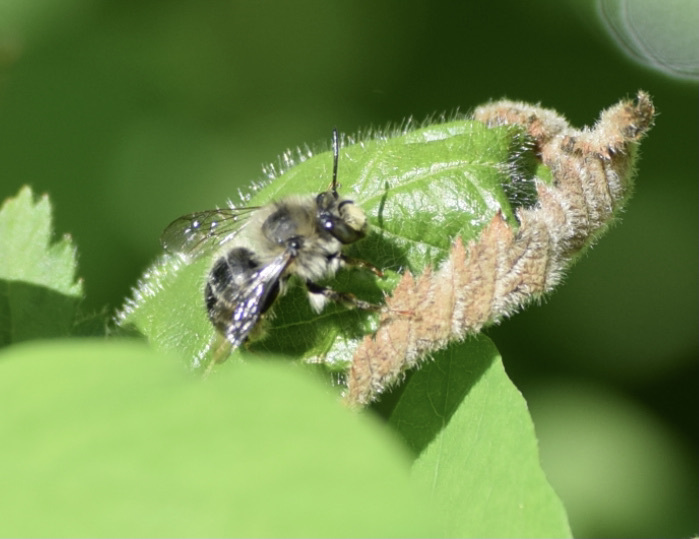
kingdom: Animalia
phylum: Arthropoda
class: Insecta
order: Hymenoptera
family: Apidae
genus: Anthophora
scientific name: Anthophora terminalis
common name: Orange-tipped wood-digger bee
